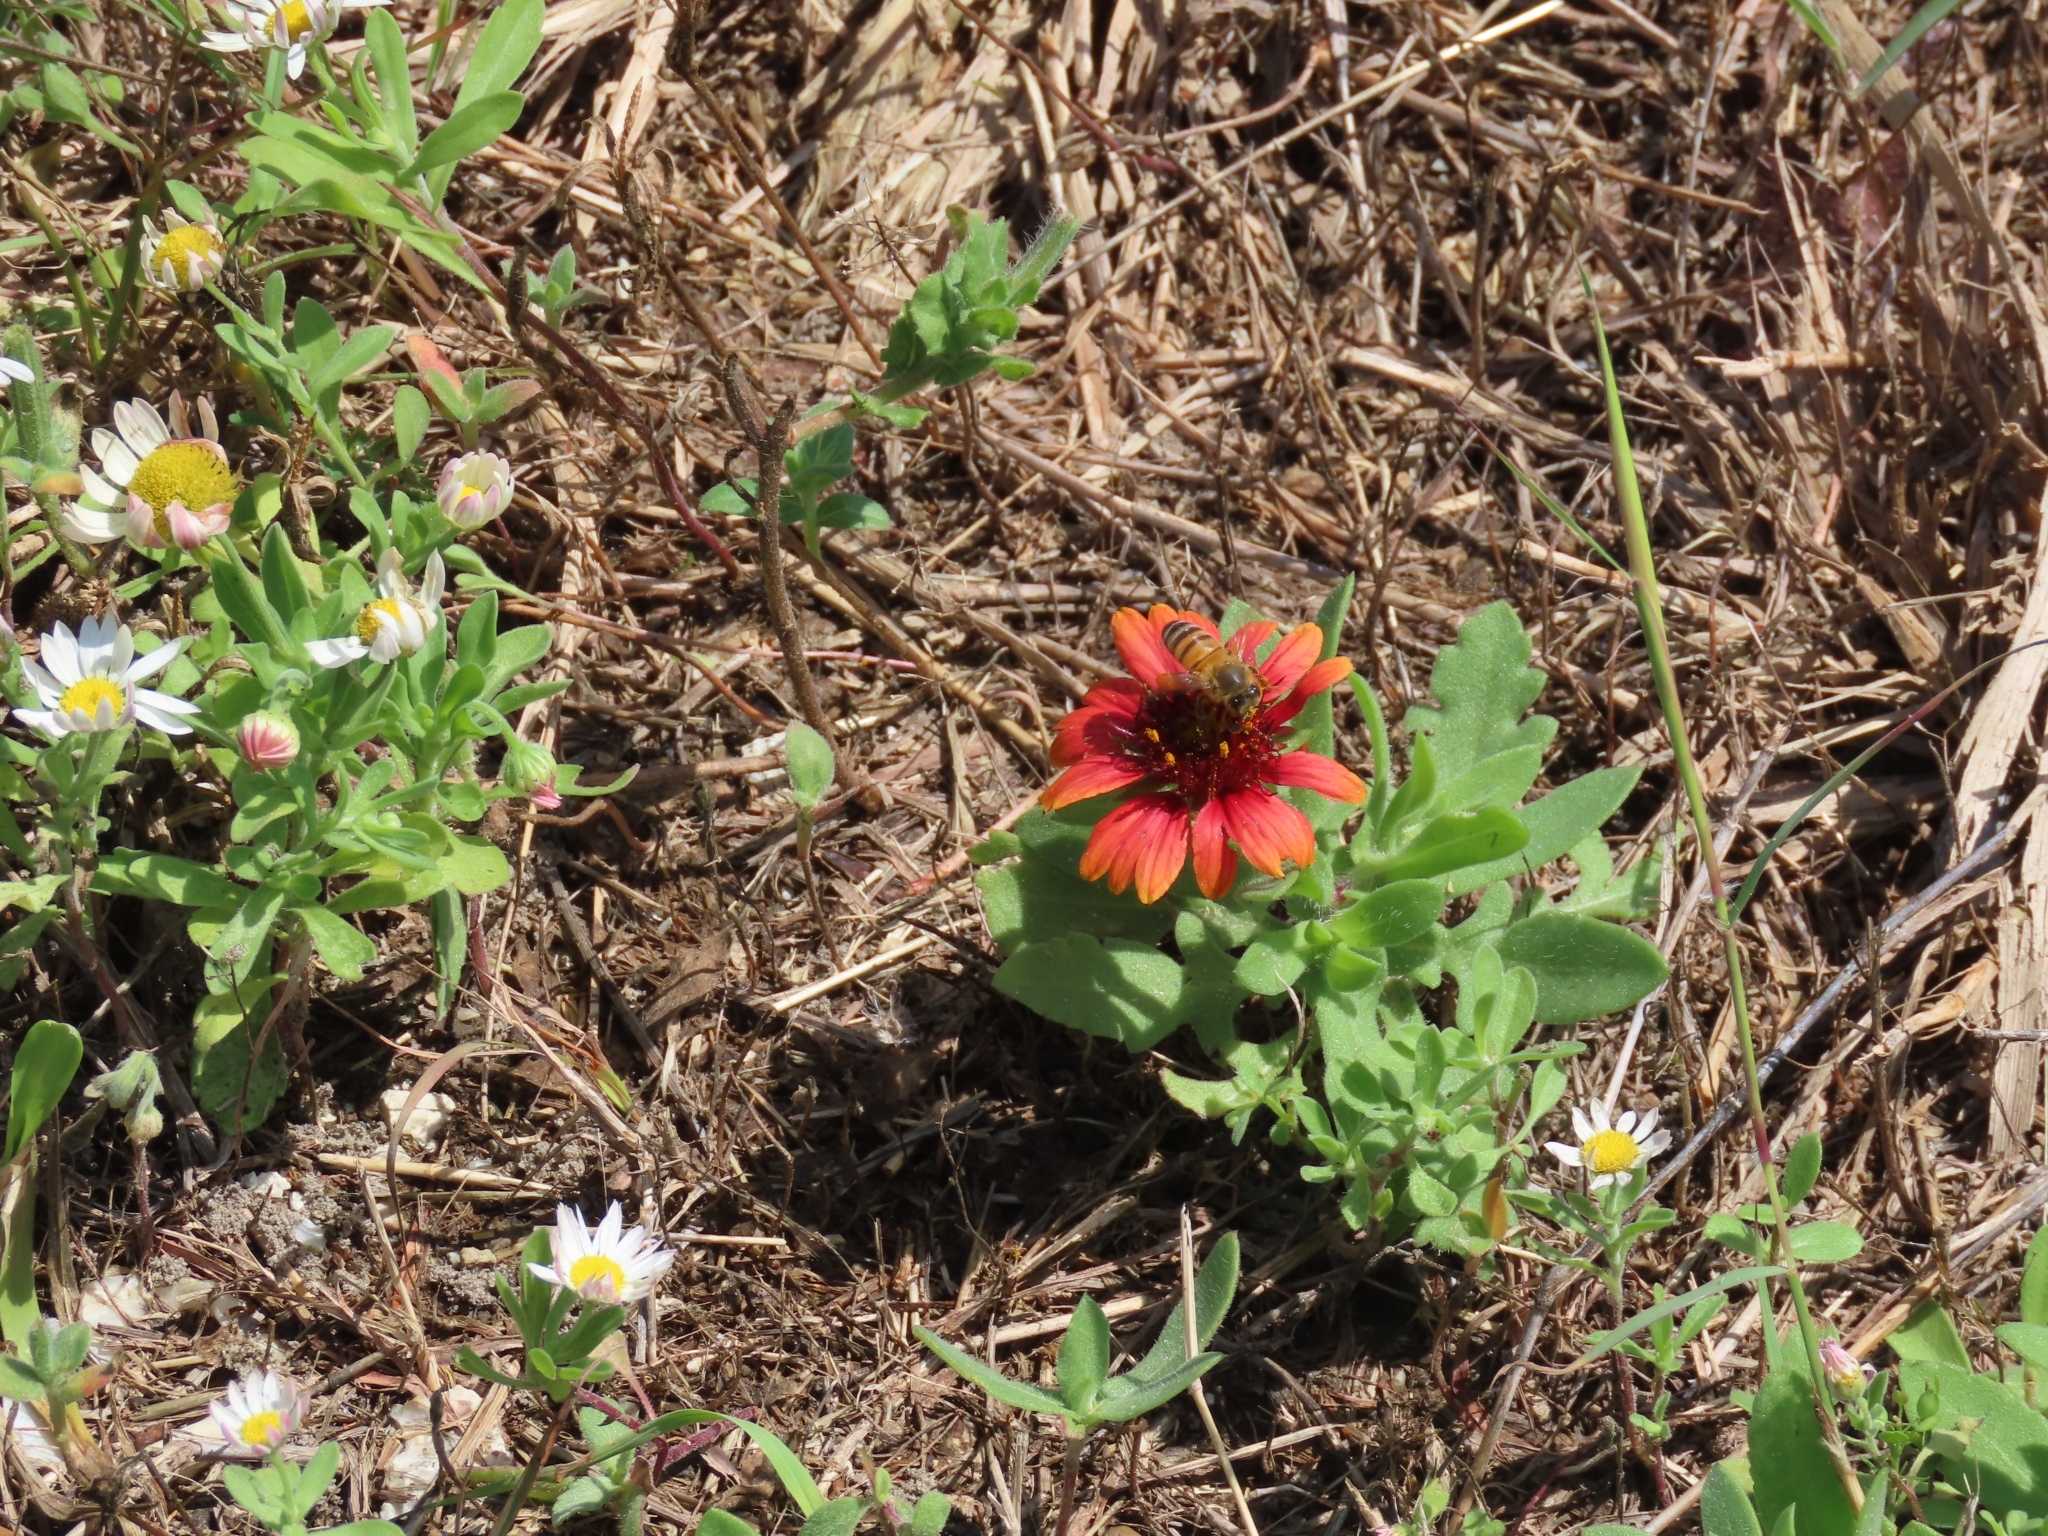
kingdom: Plantae
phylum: Tracheophyta
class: Magnoliopsida
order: Asterales
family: Asteraceae
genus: Gaillardia
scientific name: Gaillardia pulchella
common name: Firewheel
